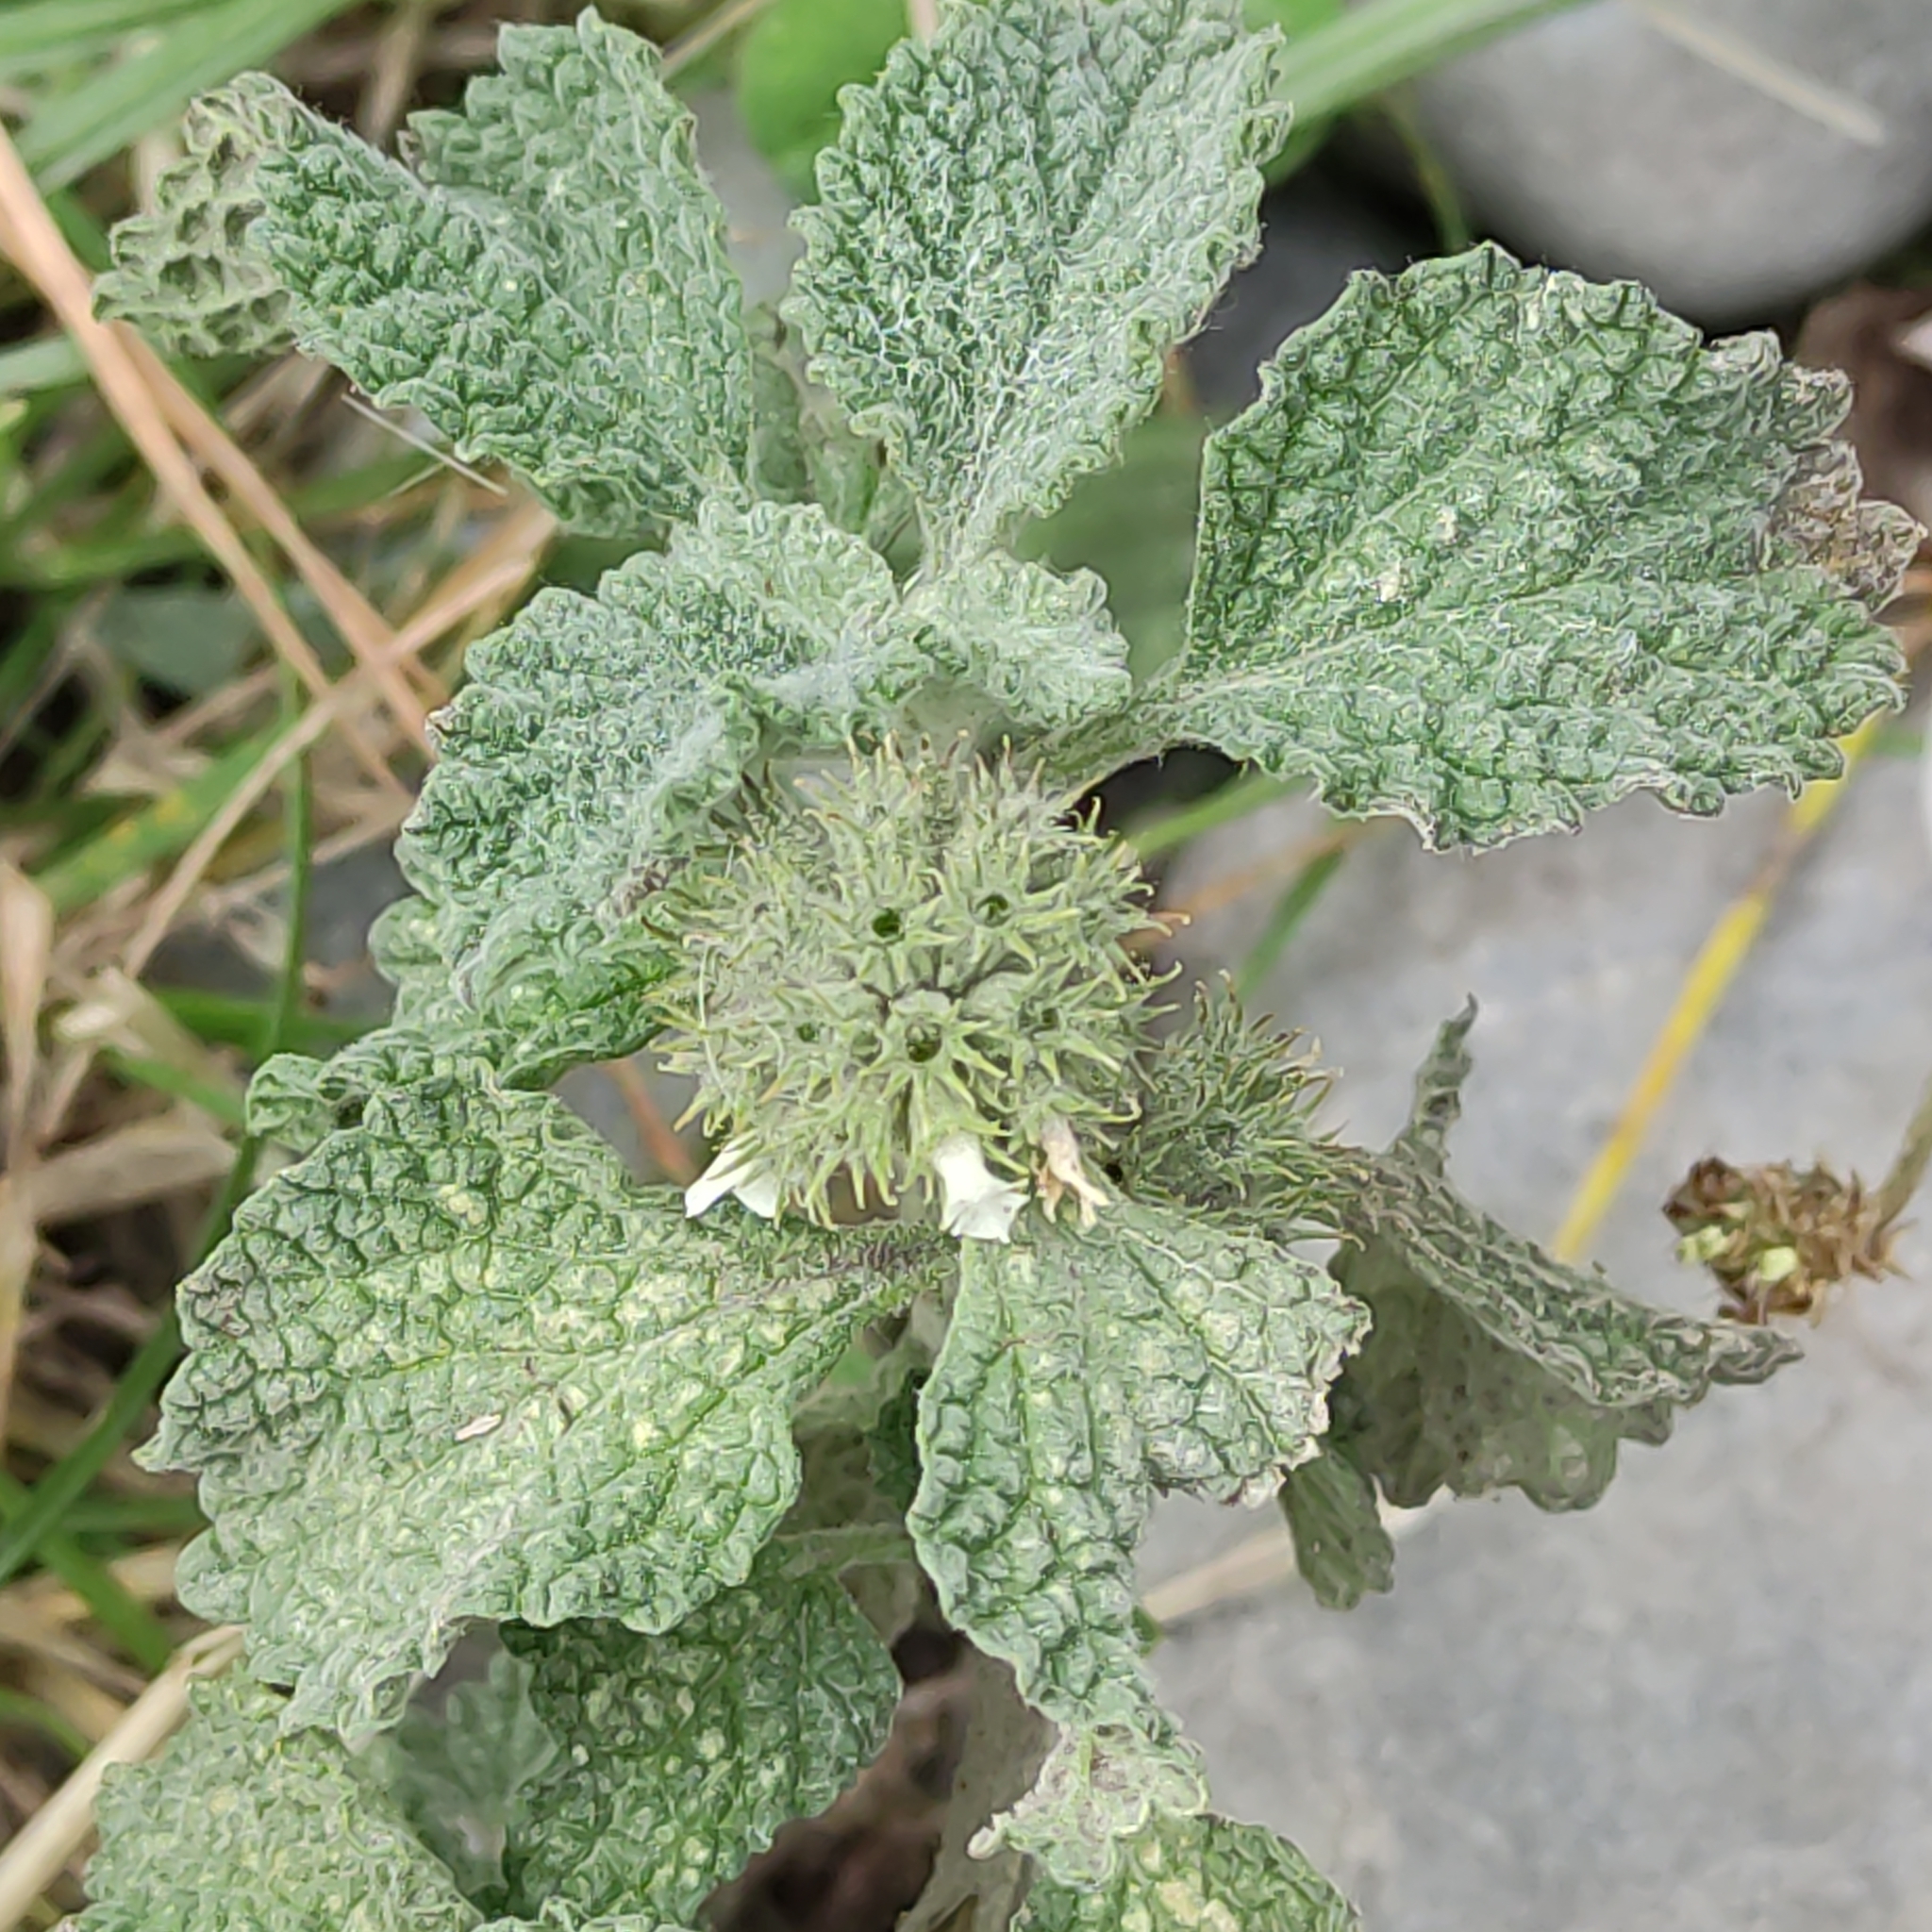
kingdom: Plantae
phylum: Tracheophyta
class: Magnoliopsida
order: Lamiales
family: Lamiaceae
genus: Marrubium
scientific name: Marrubium vulgare
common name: Horehound
